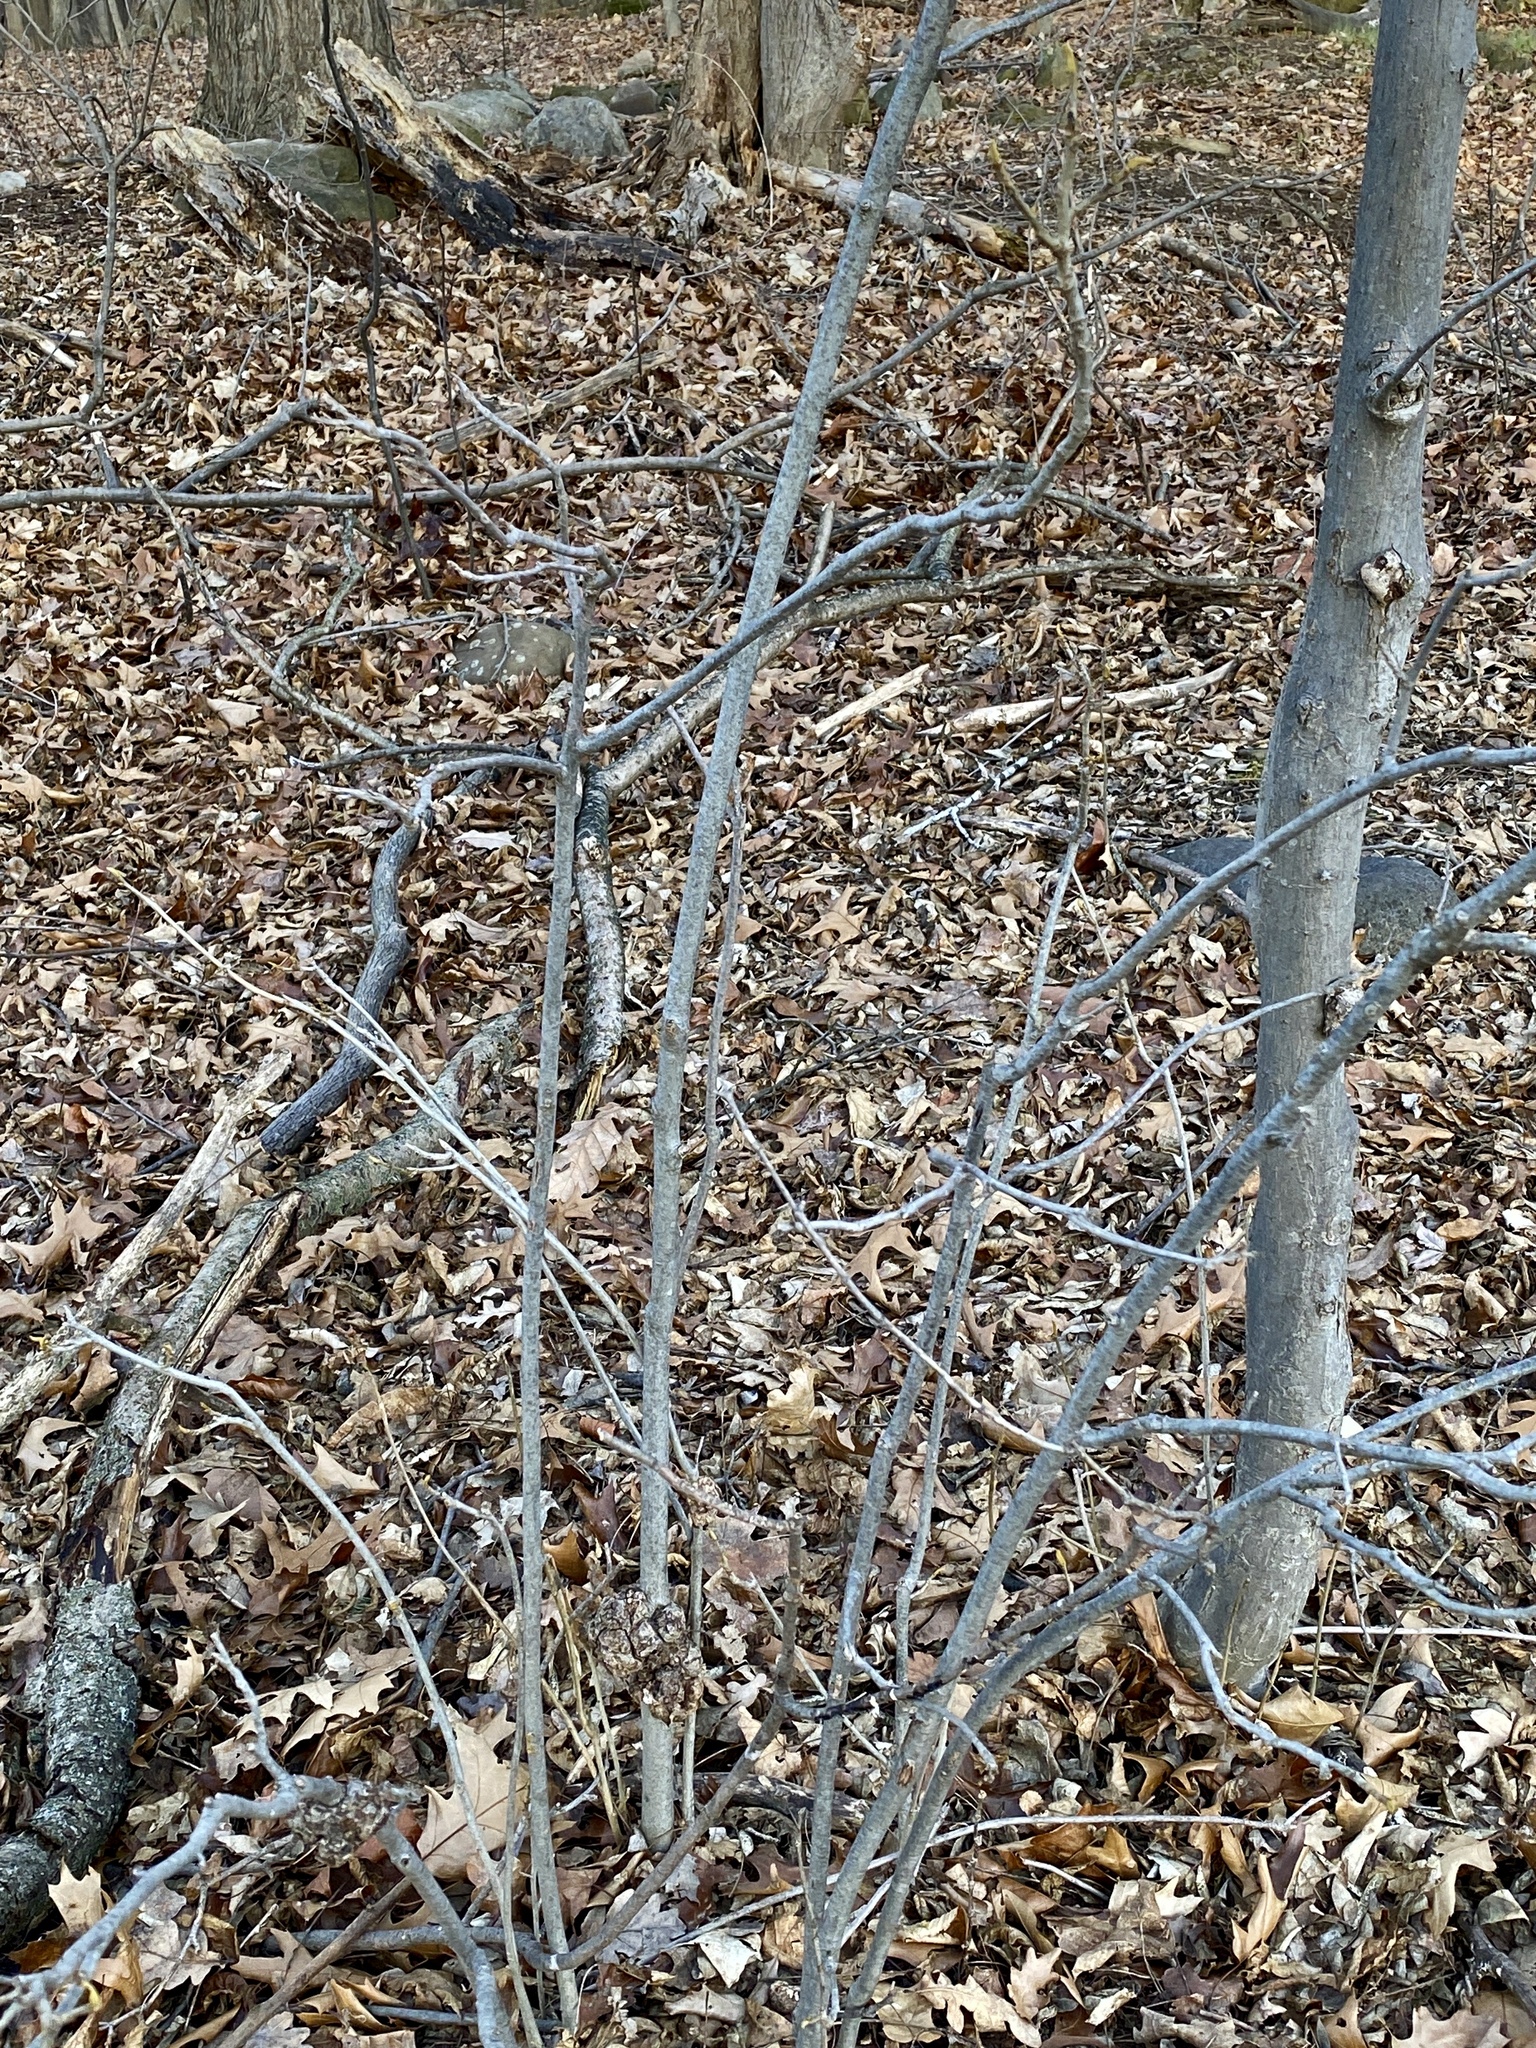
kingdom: Plantae
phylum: Tracheophyta
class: Magnoliopsida
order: Fagales
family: Juglandaceae
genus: Carya
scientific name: Carya cordiformis
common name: Bitternut hickory
